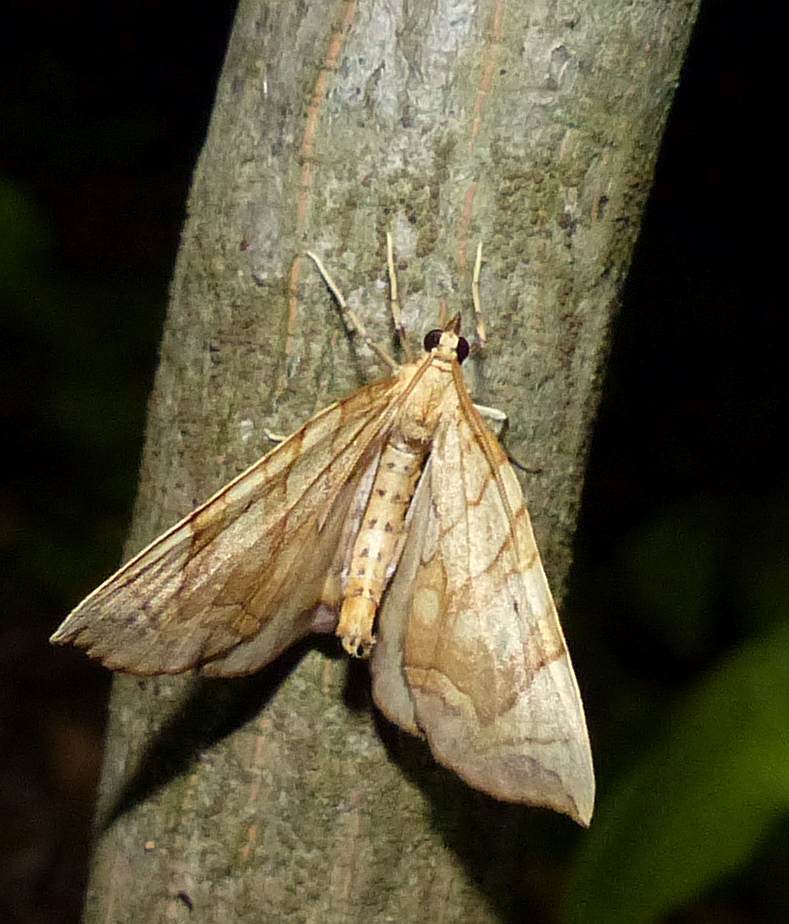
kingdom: Animalia
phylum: Arthropoda
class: Insecta
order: Lepidoptera
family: Geometridae
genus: Eulithis
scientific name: Eulithis
